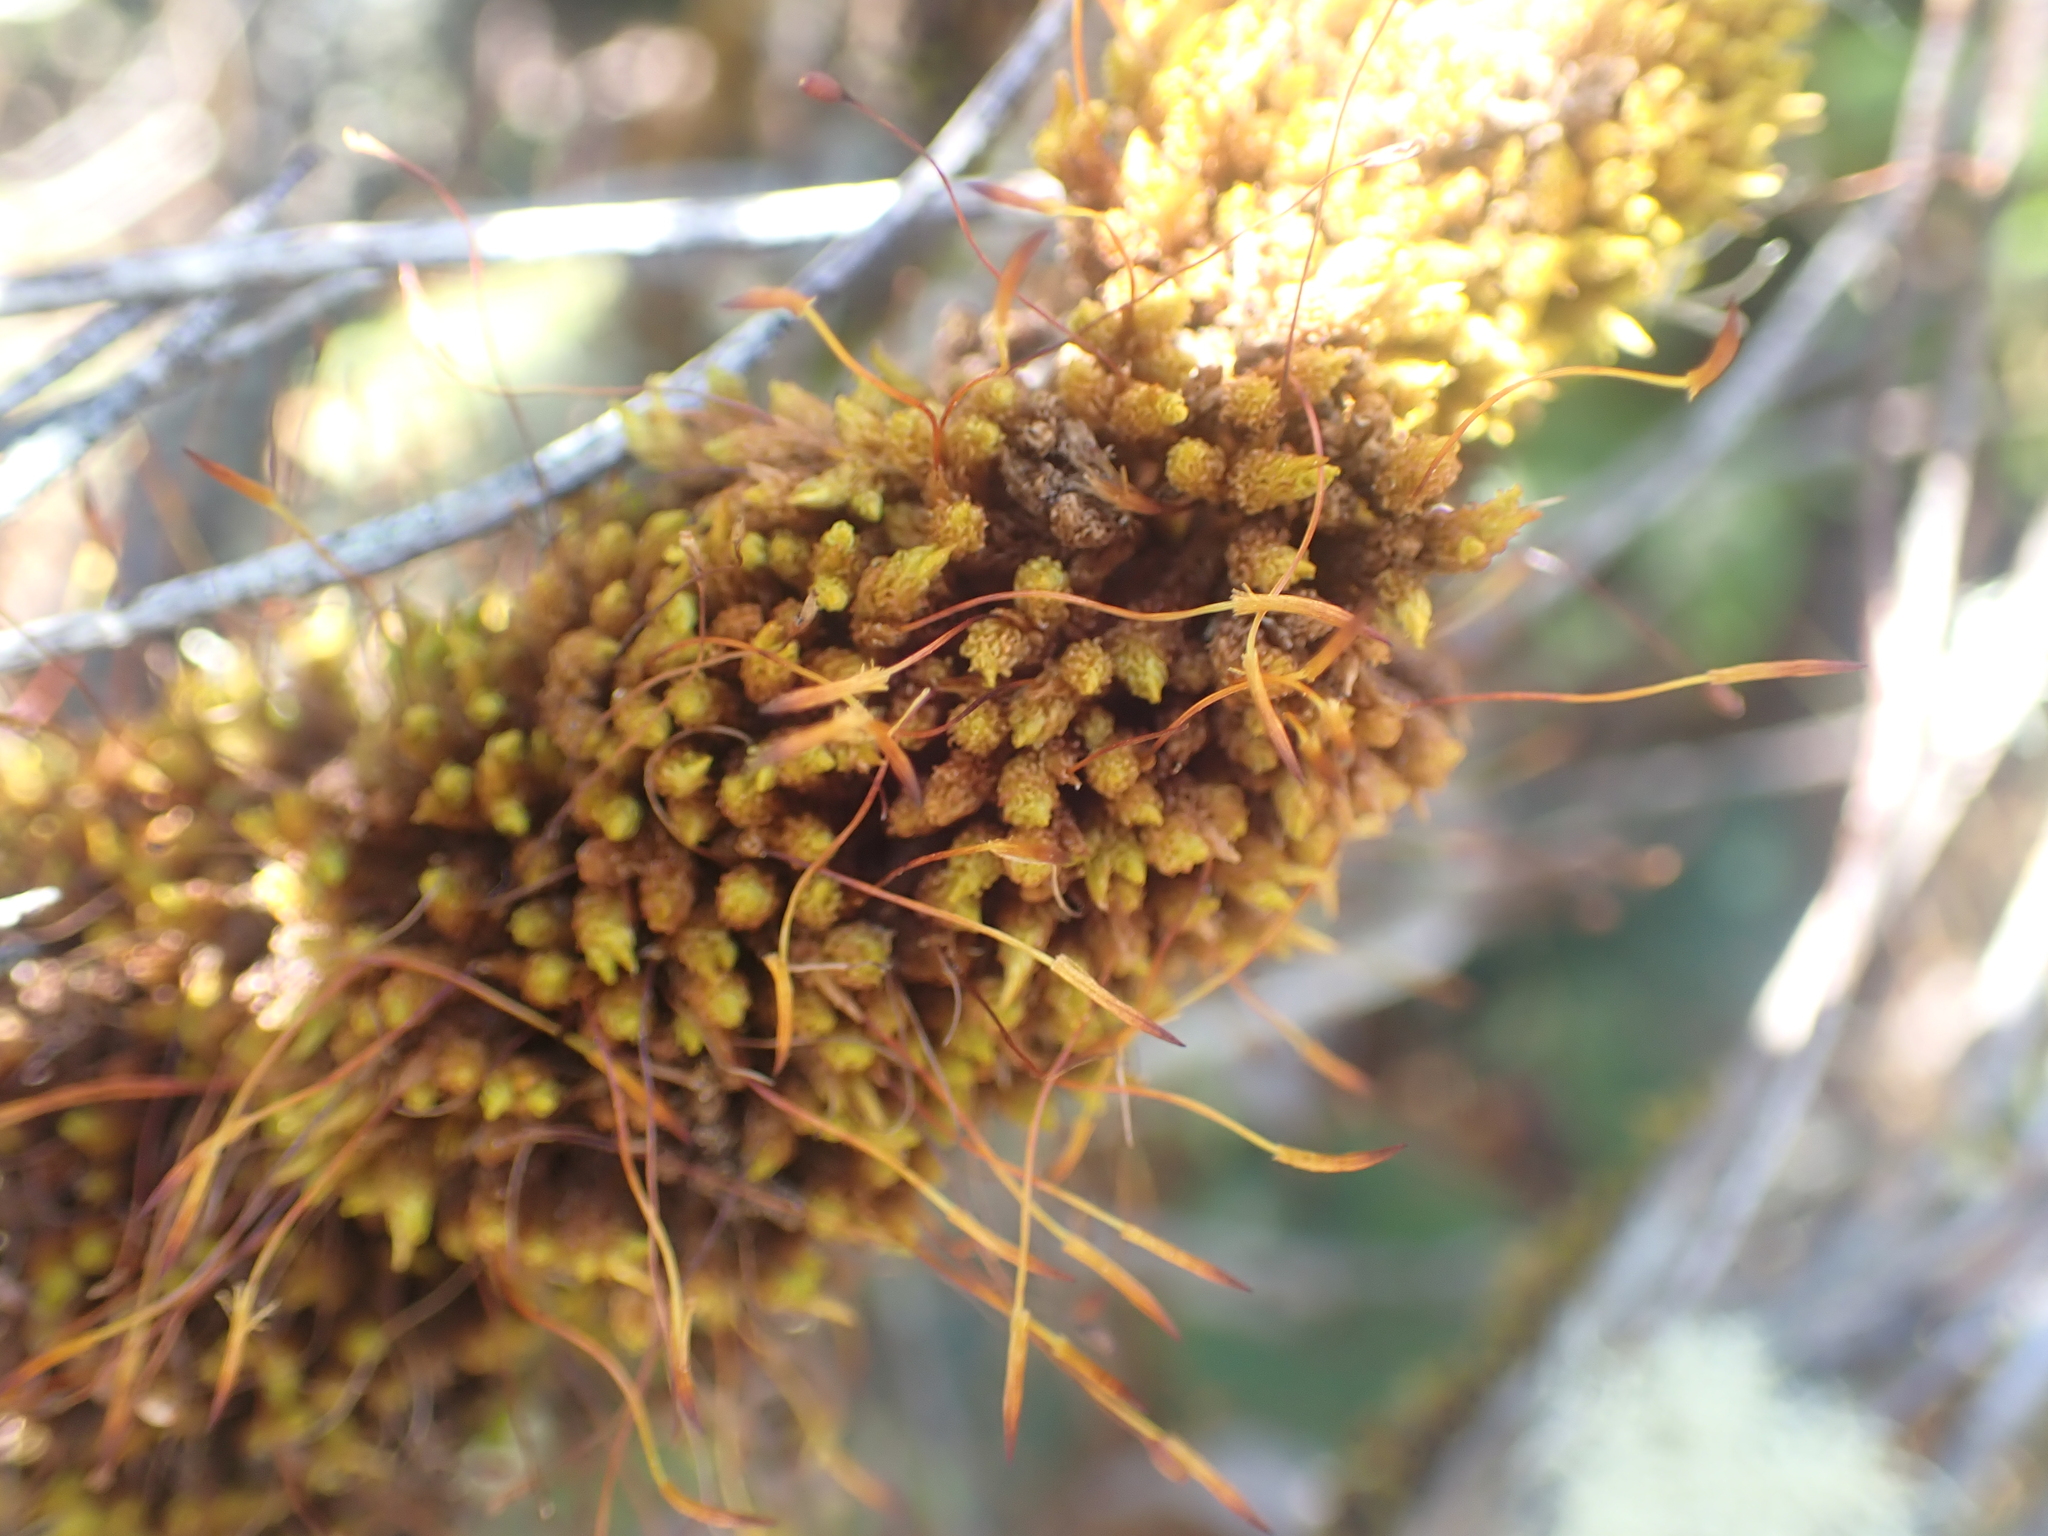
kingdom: Plantae
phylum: Bryophyta
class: Bryopsida
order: Orthotrichales
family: Orthotrichaceae
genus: Macromitrium
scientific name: Macromitrium microstomum
